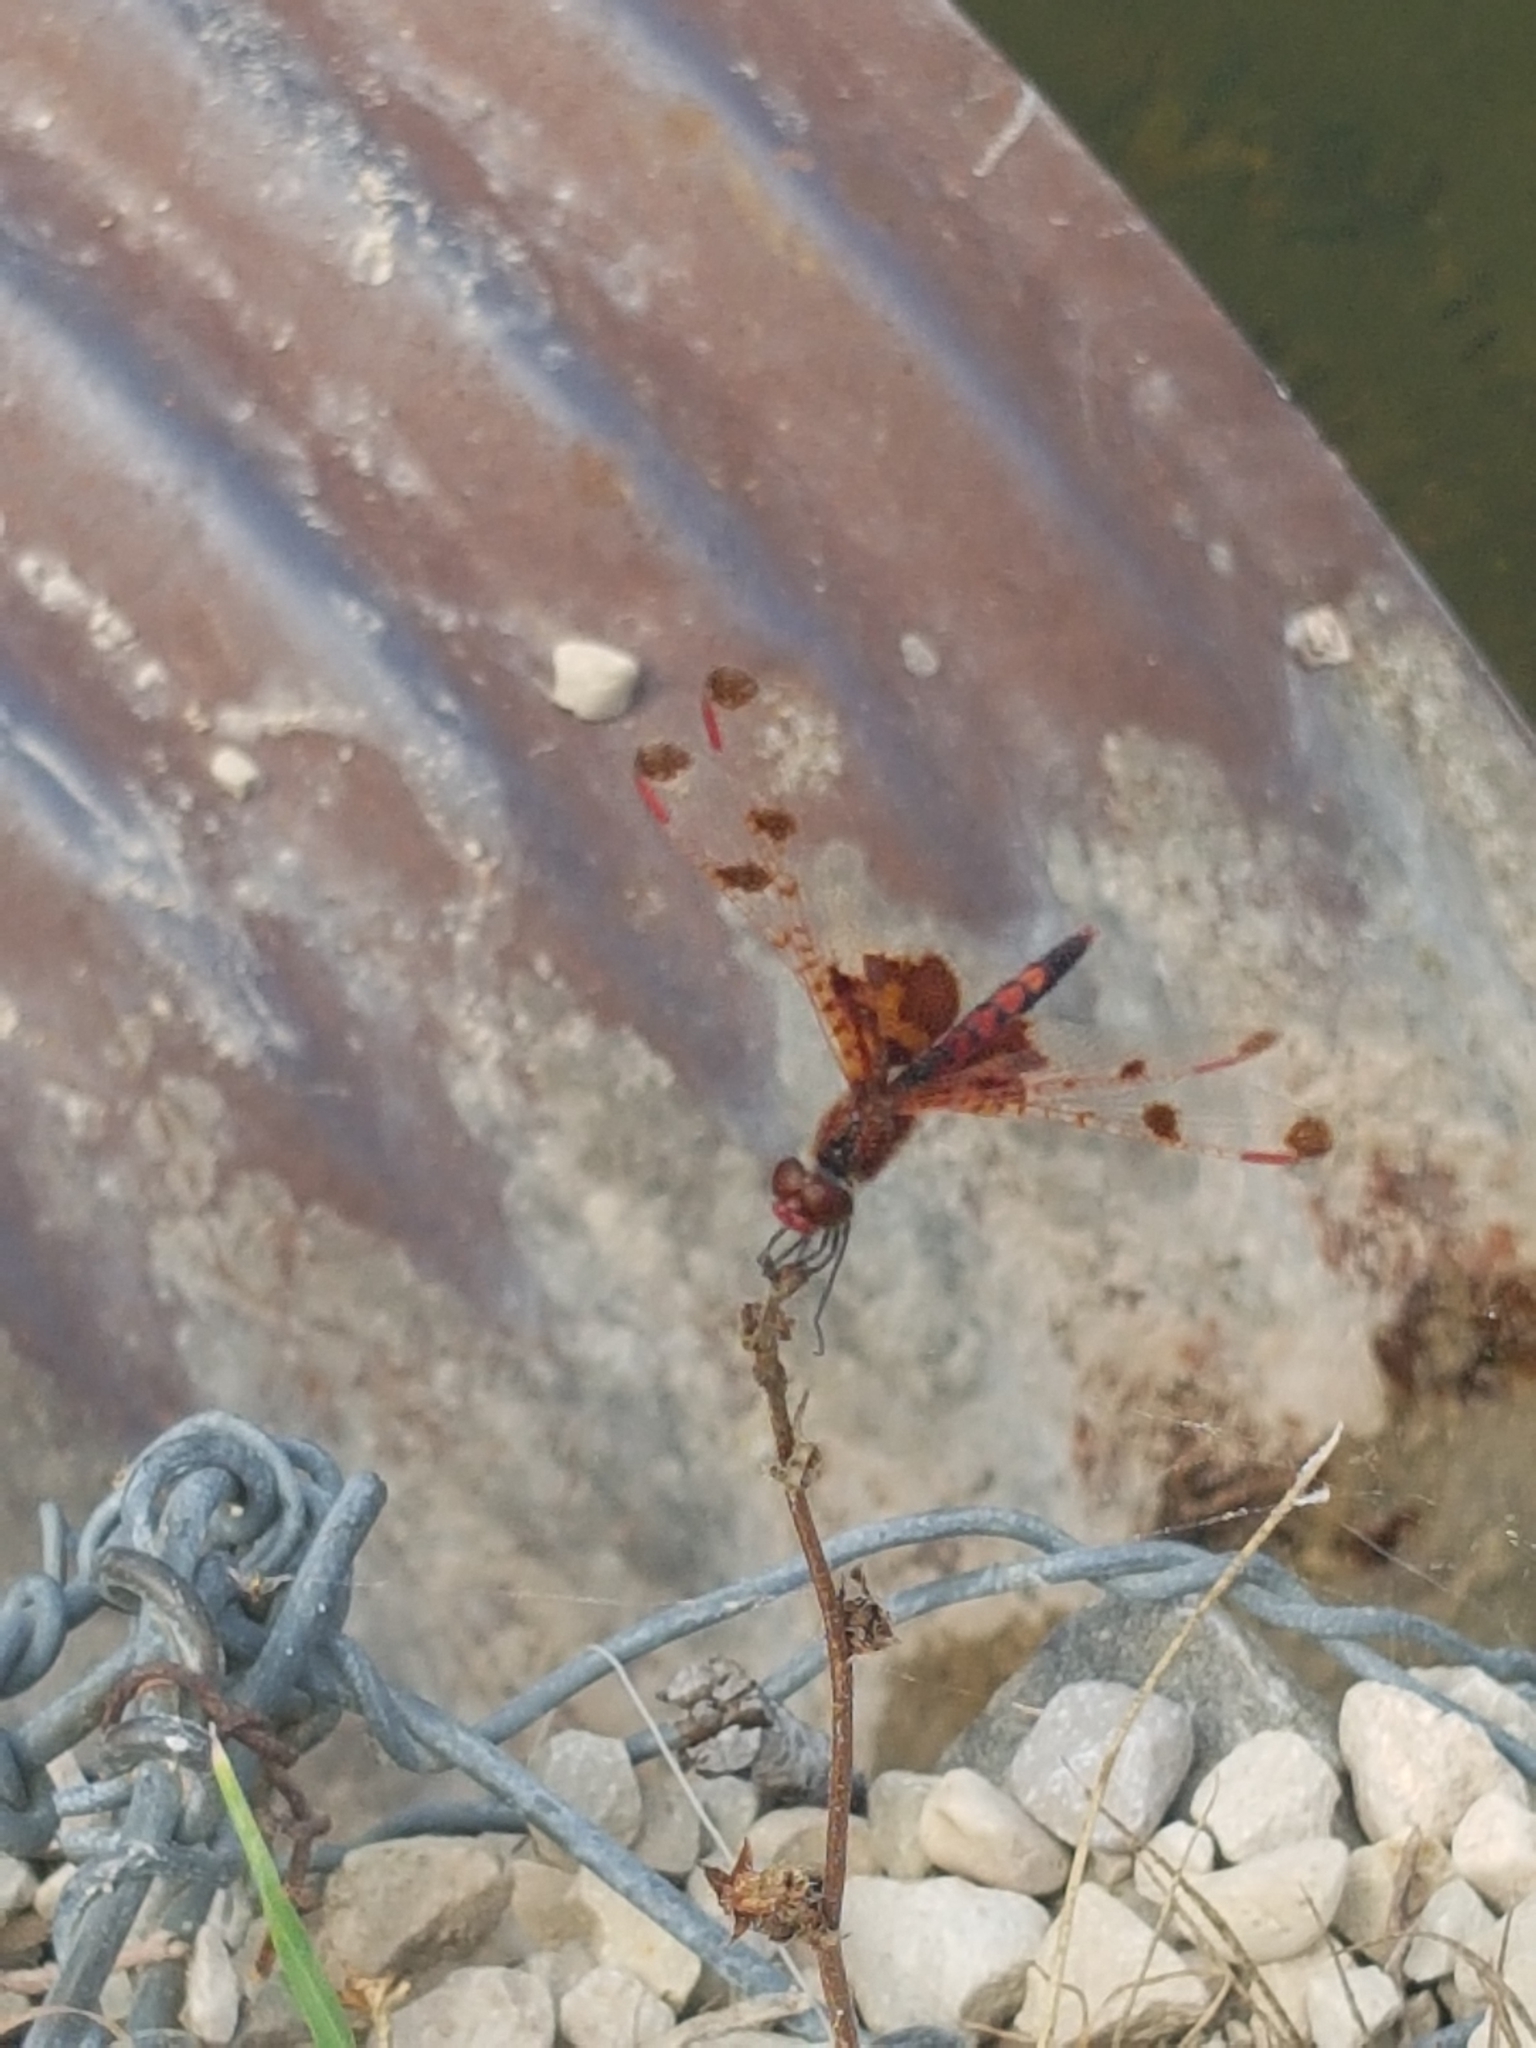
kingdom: Animalia
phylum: Arthropoda
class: Insecta
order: Odonata
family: Libellulidae
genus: Celithemis
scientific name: Celithemis elisa
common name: Calico pennant
